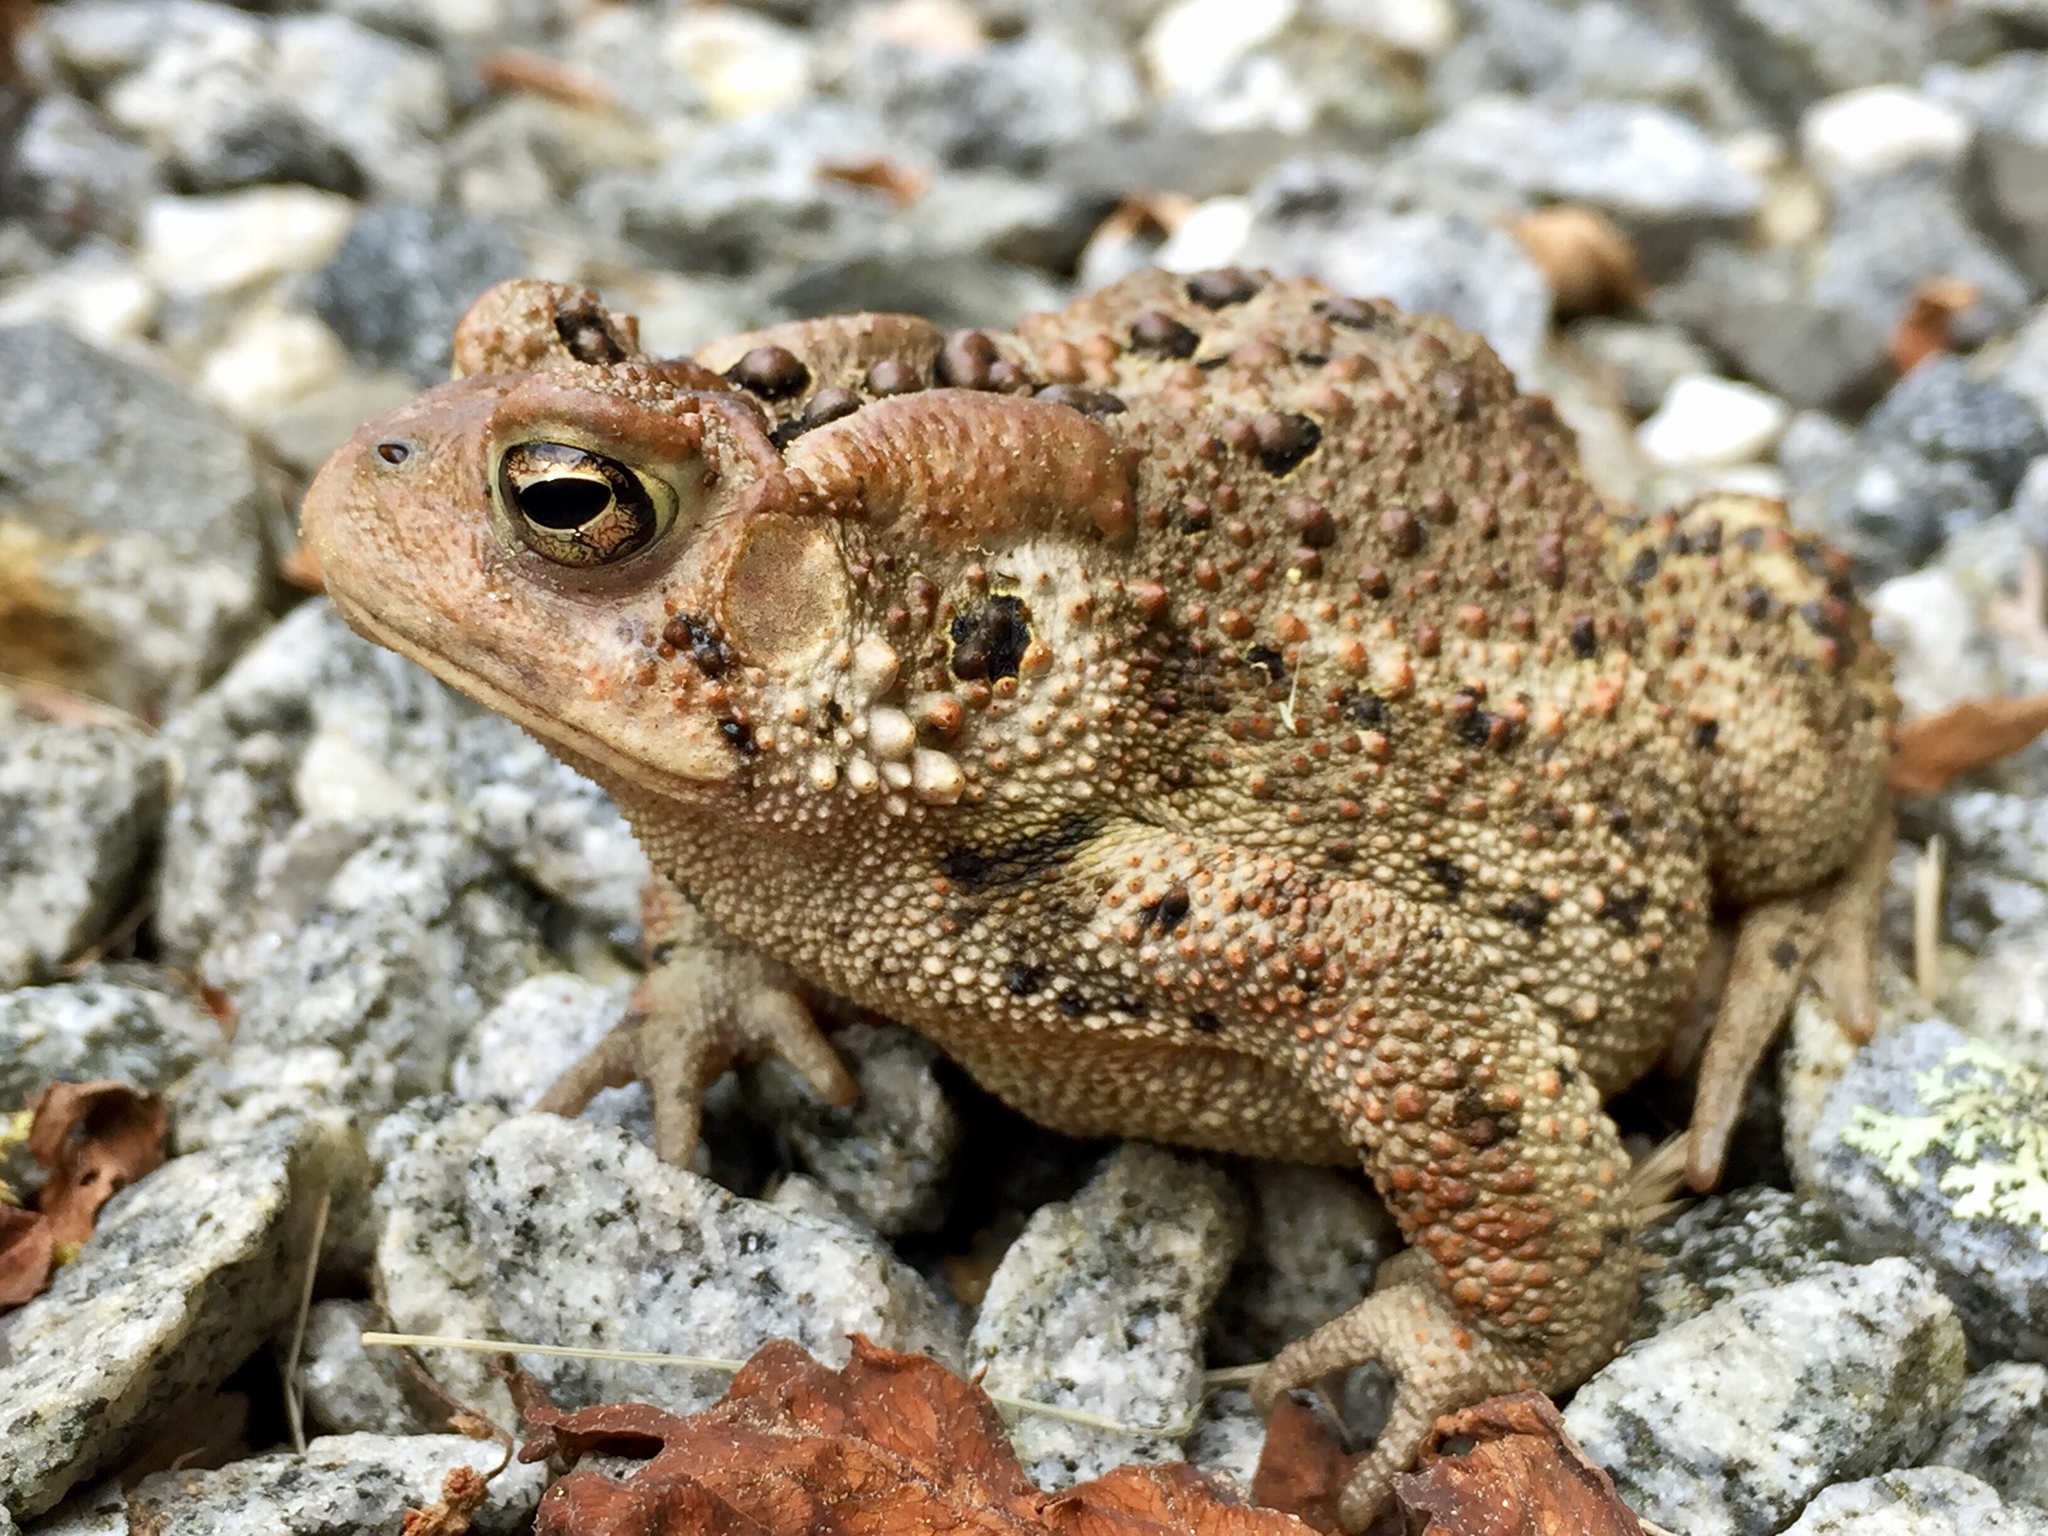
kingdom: Animalia
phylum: Chordata
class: Amphibia
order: Anura
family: Bufonidae
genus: Anaxyrus
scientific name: Anaxyrus americanus
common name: American toad
